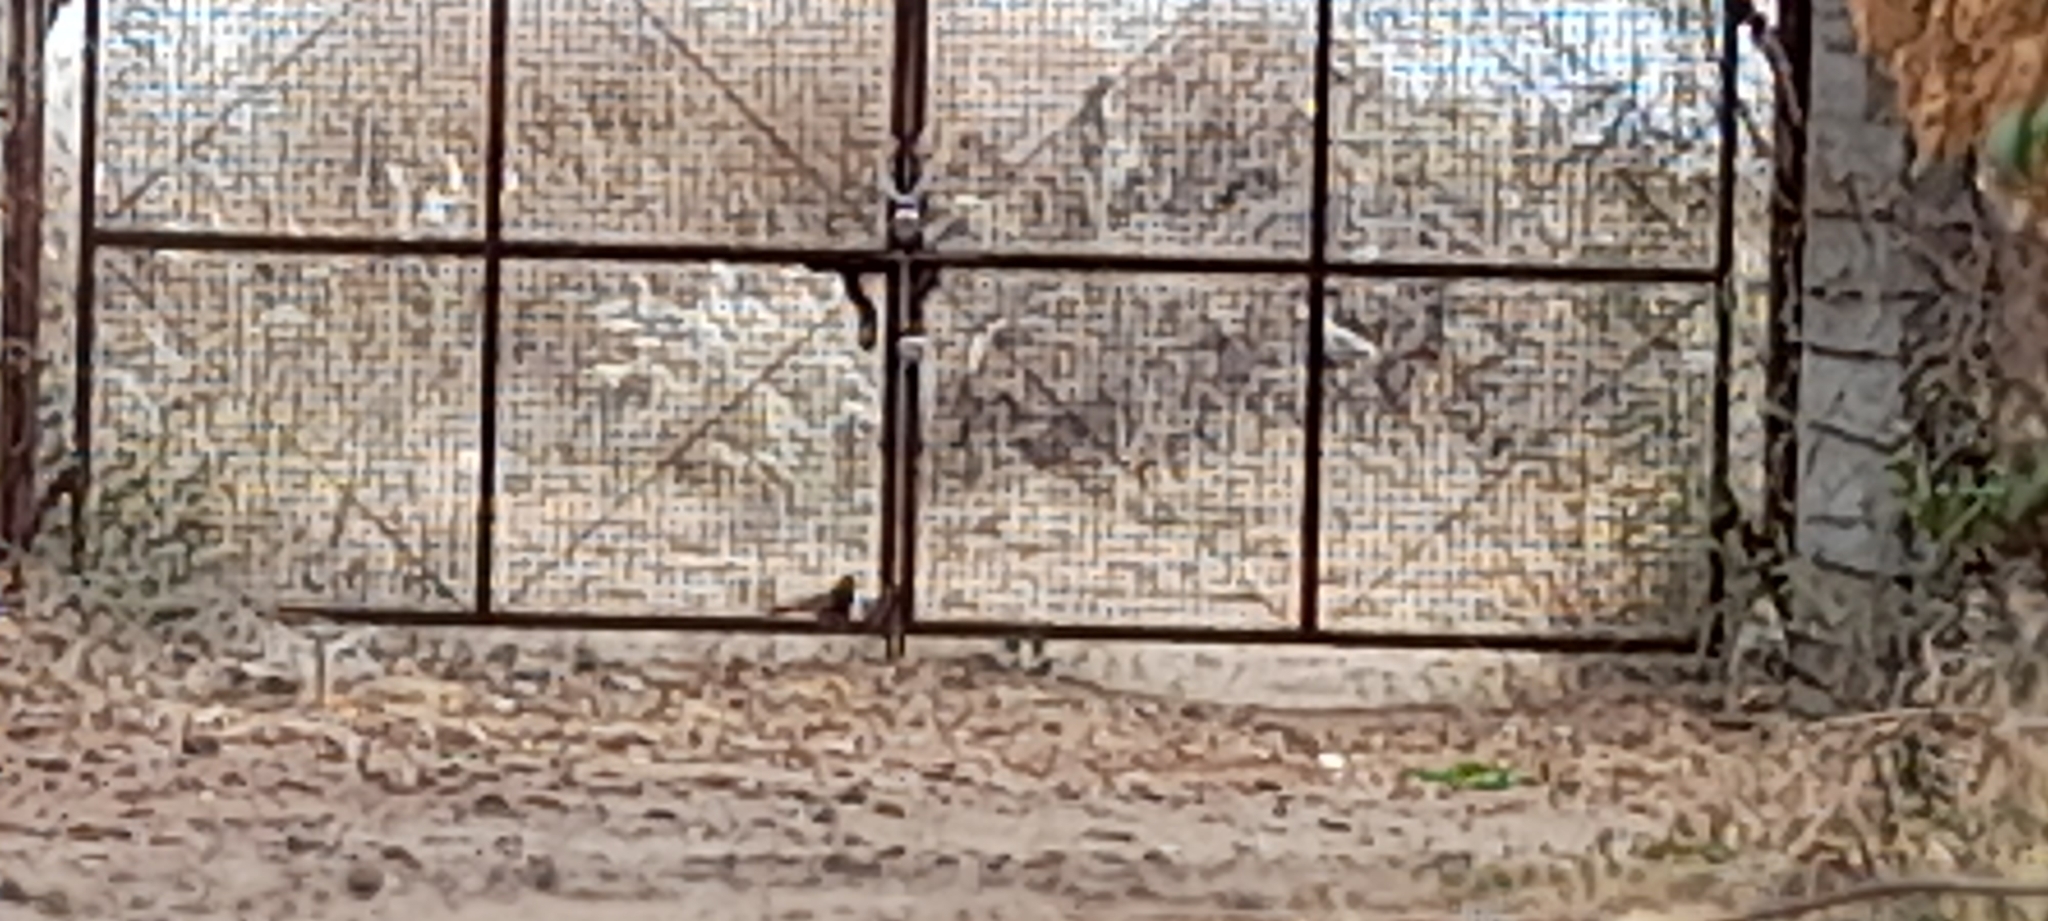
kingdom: Animalia
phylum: Chordata
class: Aves
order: Cuculiformes
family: Cuculidae
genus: Centropus
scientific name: Centropus sinensis
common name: Greater coucal
